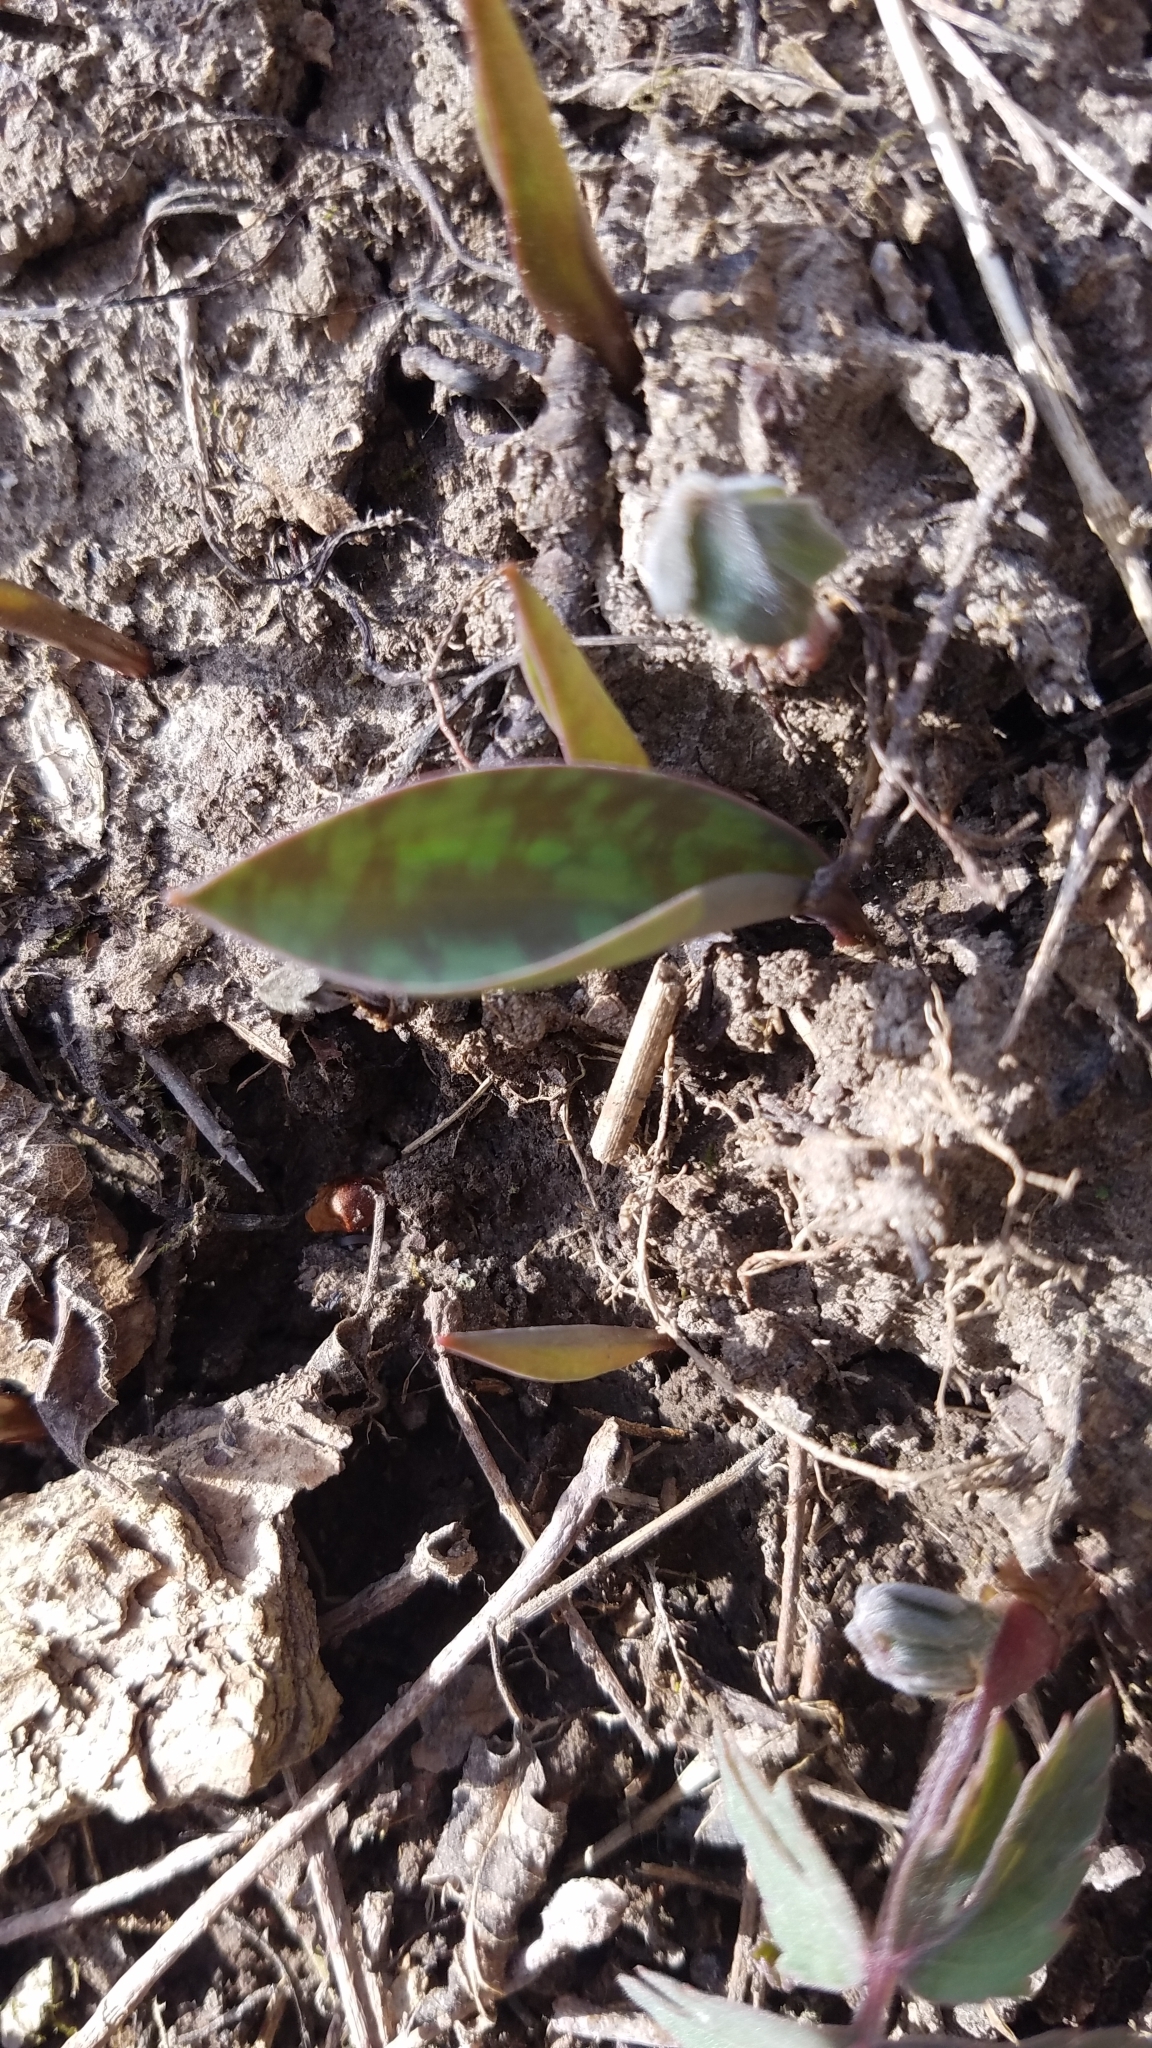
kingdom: Plantae
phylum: Tracheophyta
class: Liliopsida
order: Liliales
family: Liliaceae
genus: Erythronium
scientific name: Erythronium
